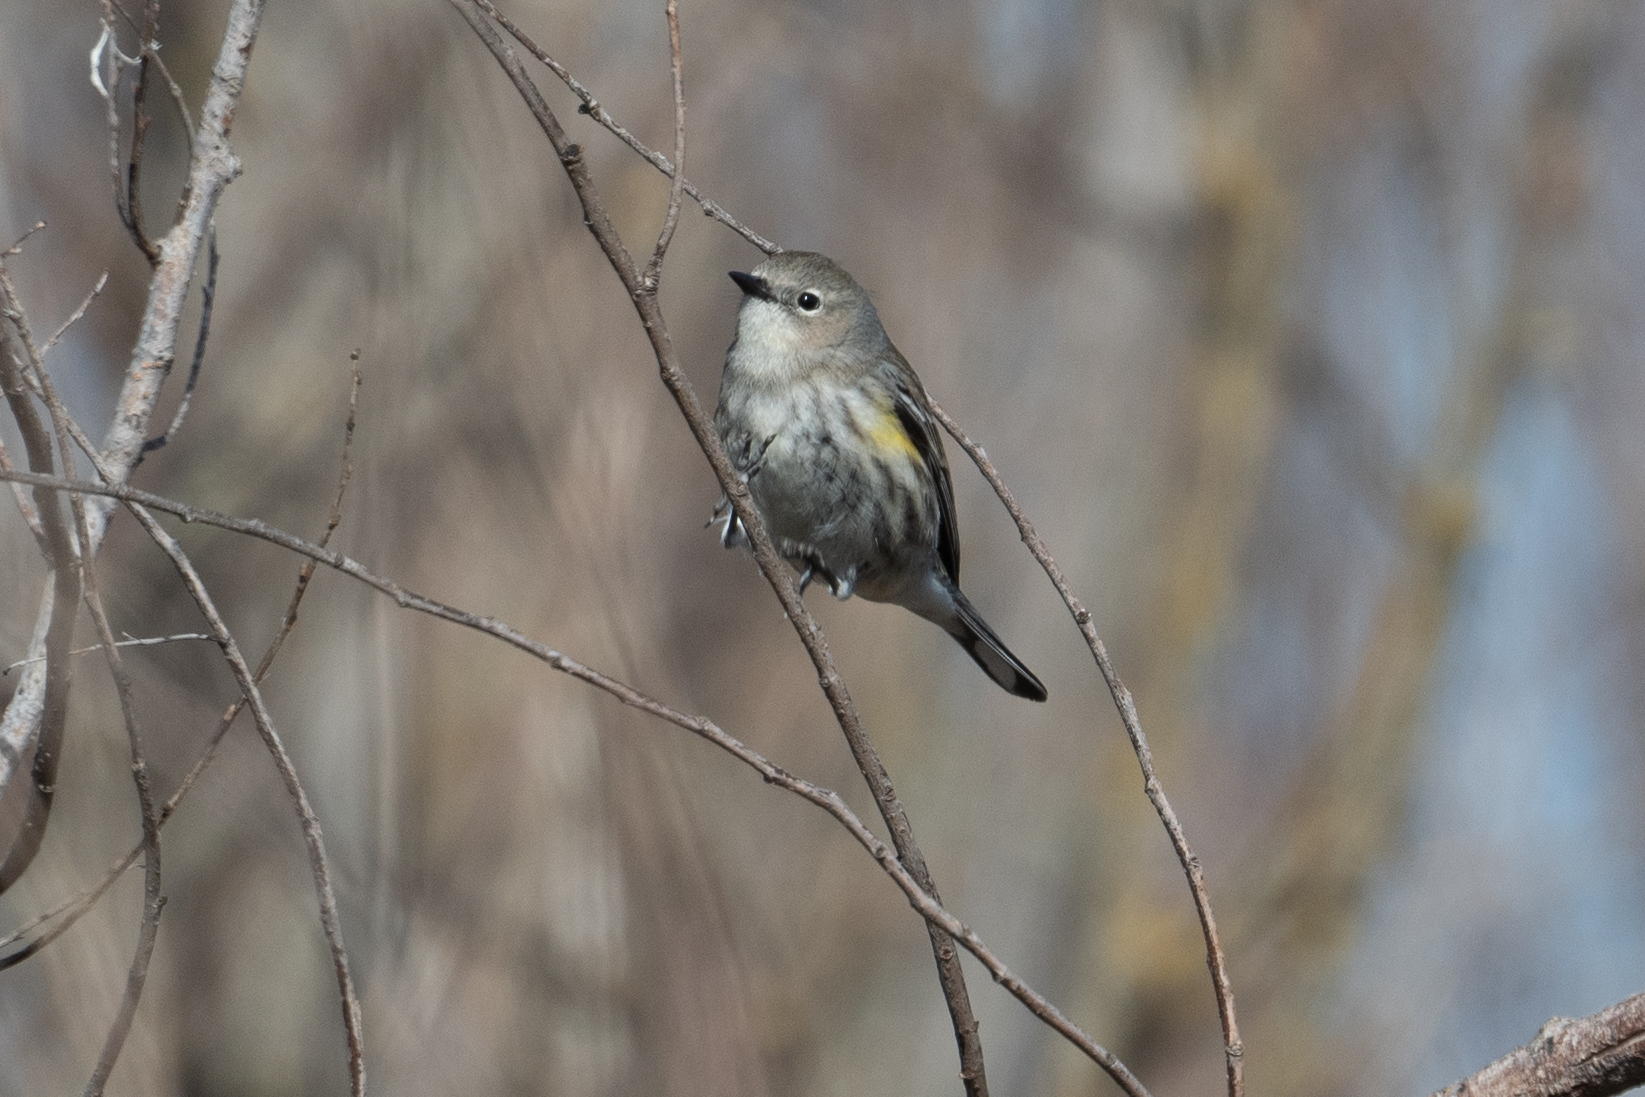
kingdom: Animalia
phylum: Chordata
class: Aves
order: Passeriformes
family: Parulidae
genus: Setophaga
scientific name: Setophaga coronata
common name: Myrtle warbler
